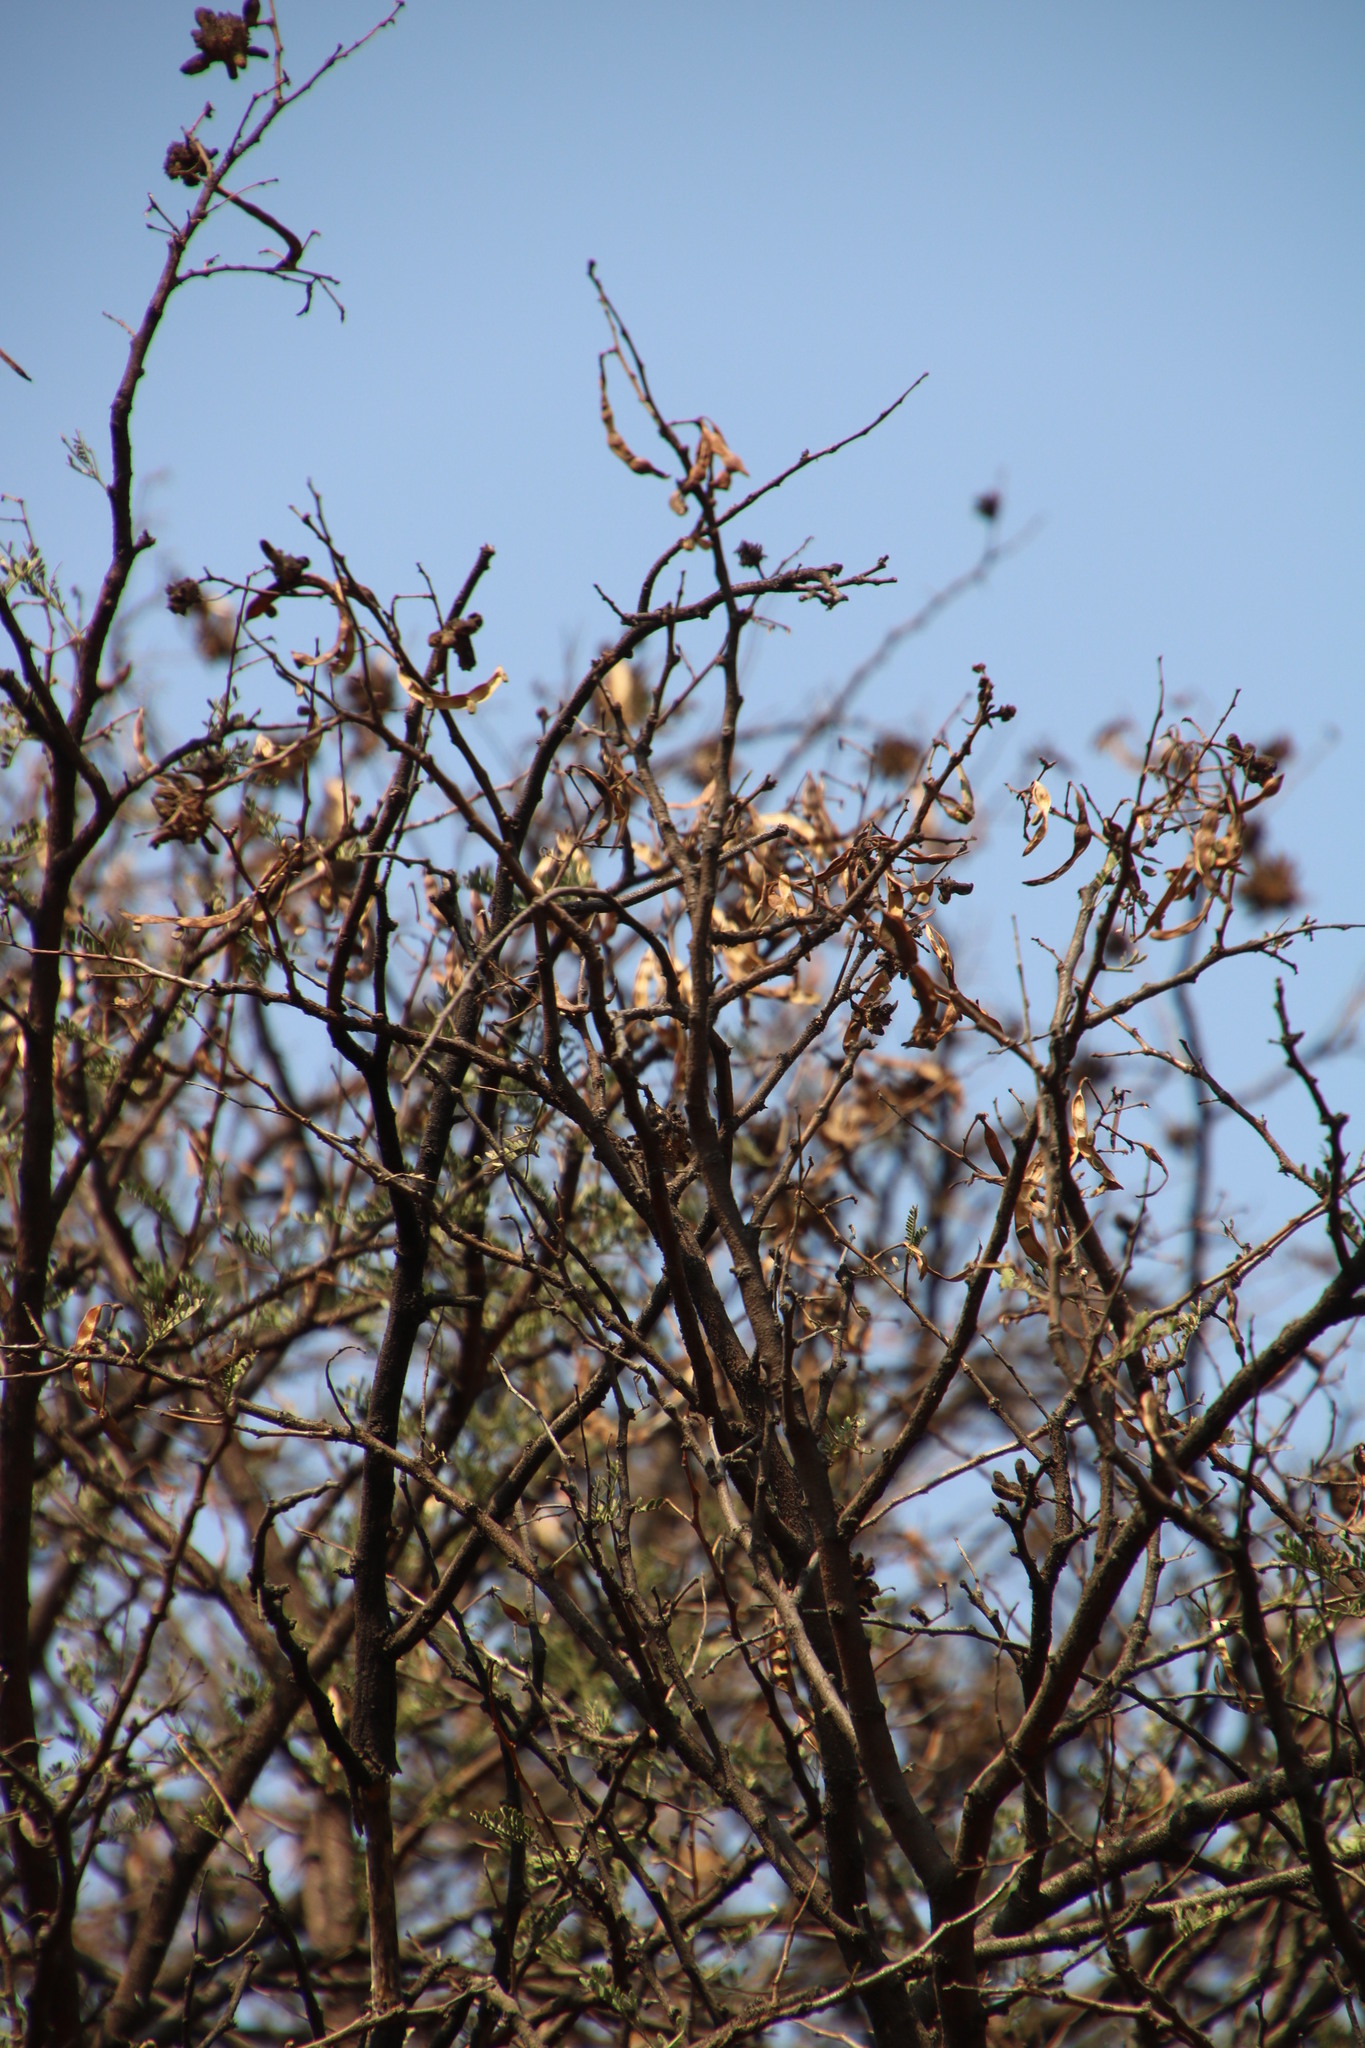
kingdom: Plantae
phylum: Tracheophyta
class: Magnoliopsida
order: Fabales
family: Fabaceae
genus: Vachellia
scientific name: Vachellia karroo
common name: Sweet thorn
